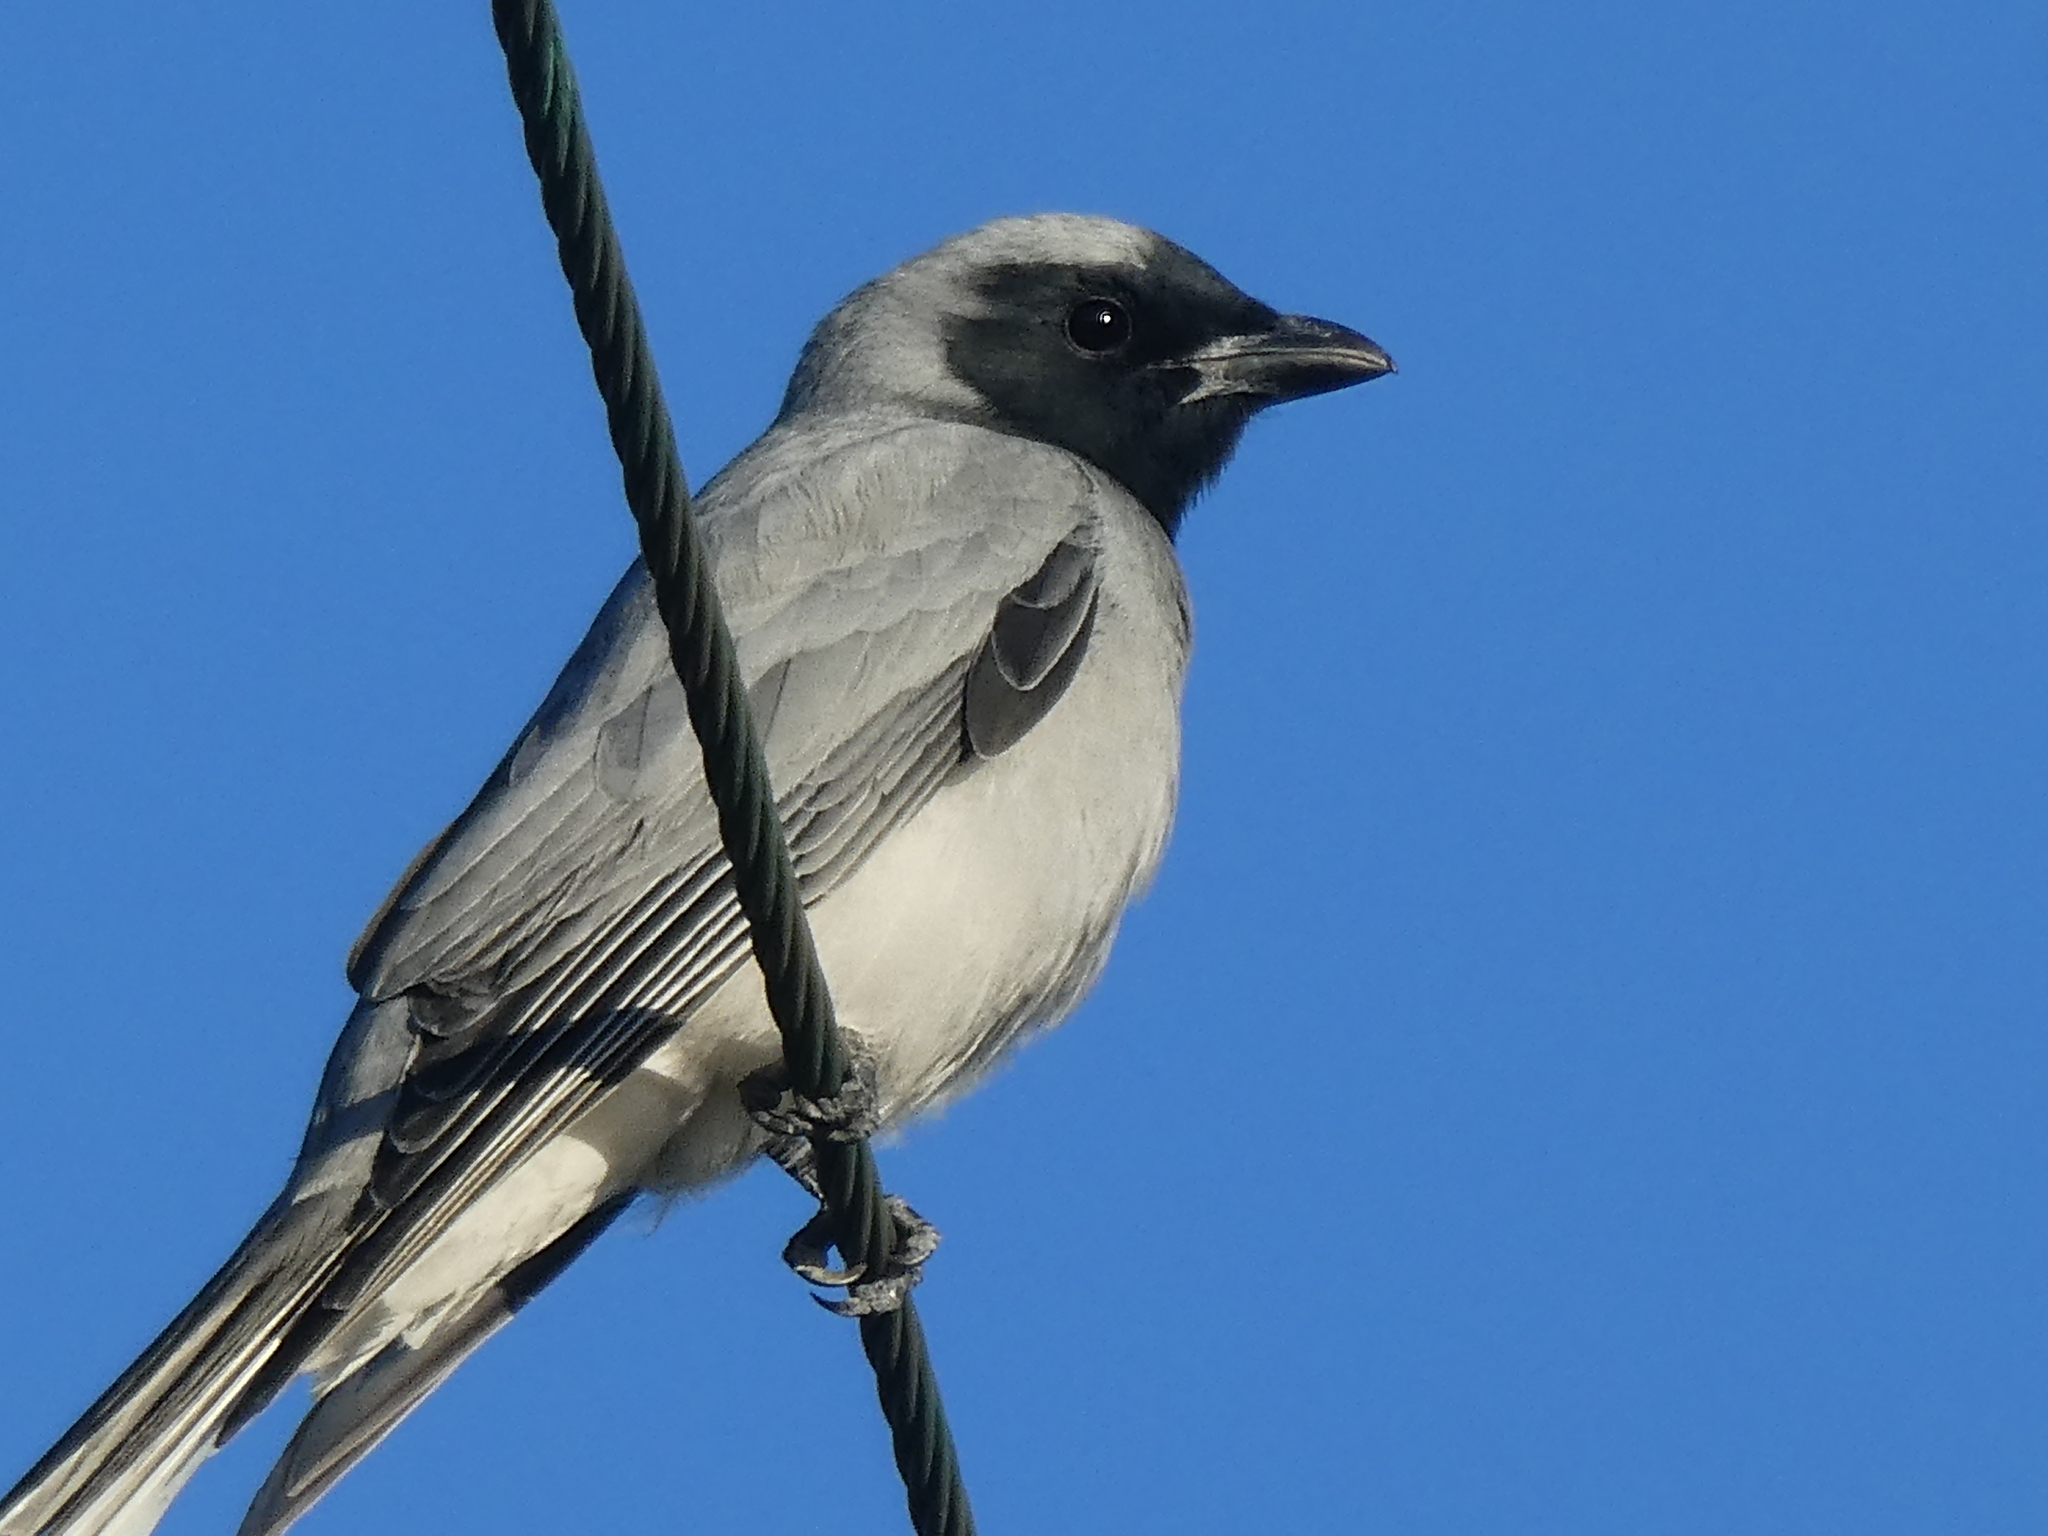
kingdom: Animalia
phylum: Chordata
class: Aves
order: Passeriformes
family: Campephagidae
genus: Coracina
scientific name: Coracina novaehollandiae
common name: Black-faced cuckooshrike
